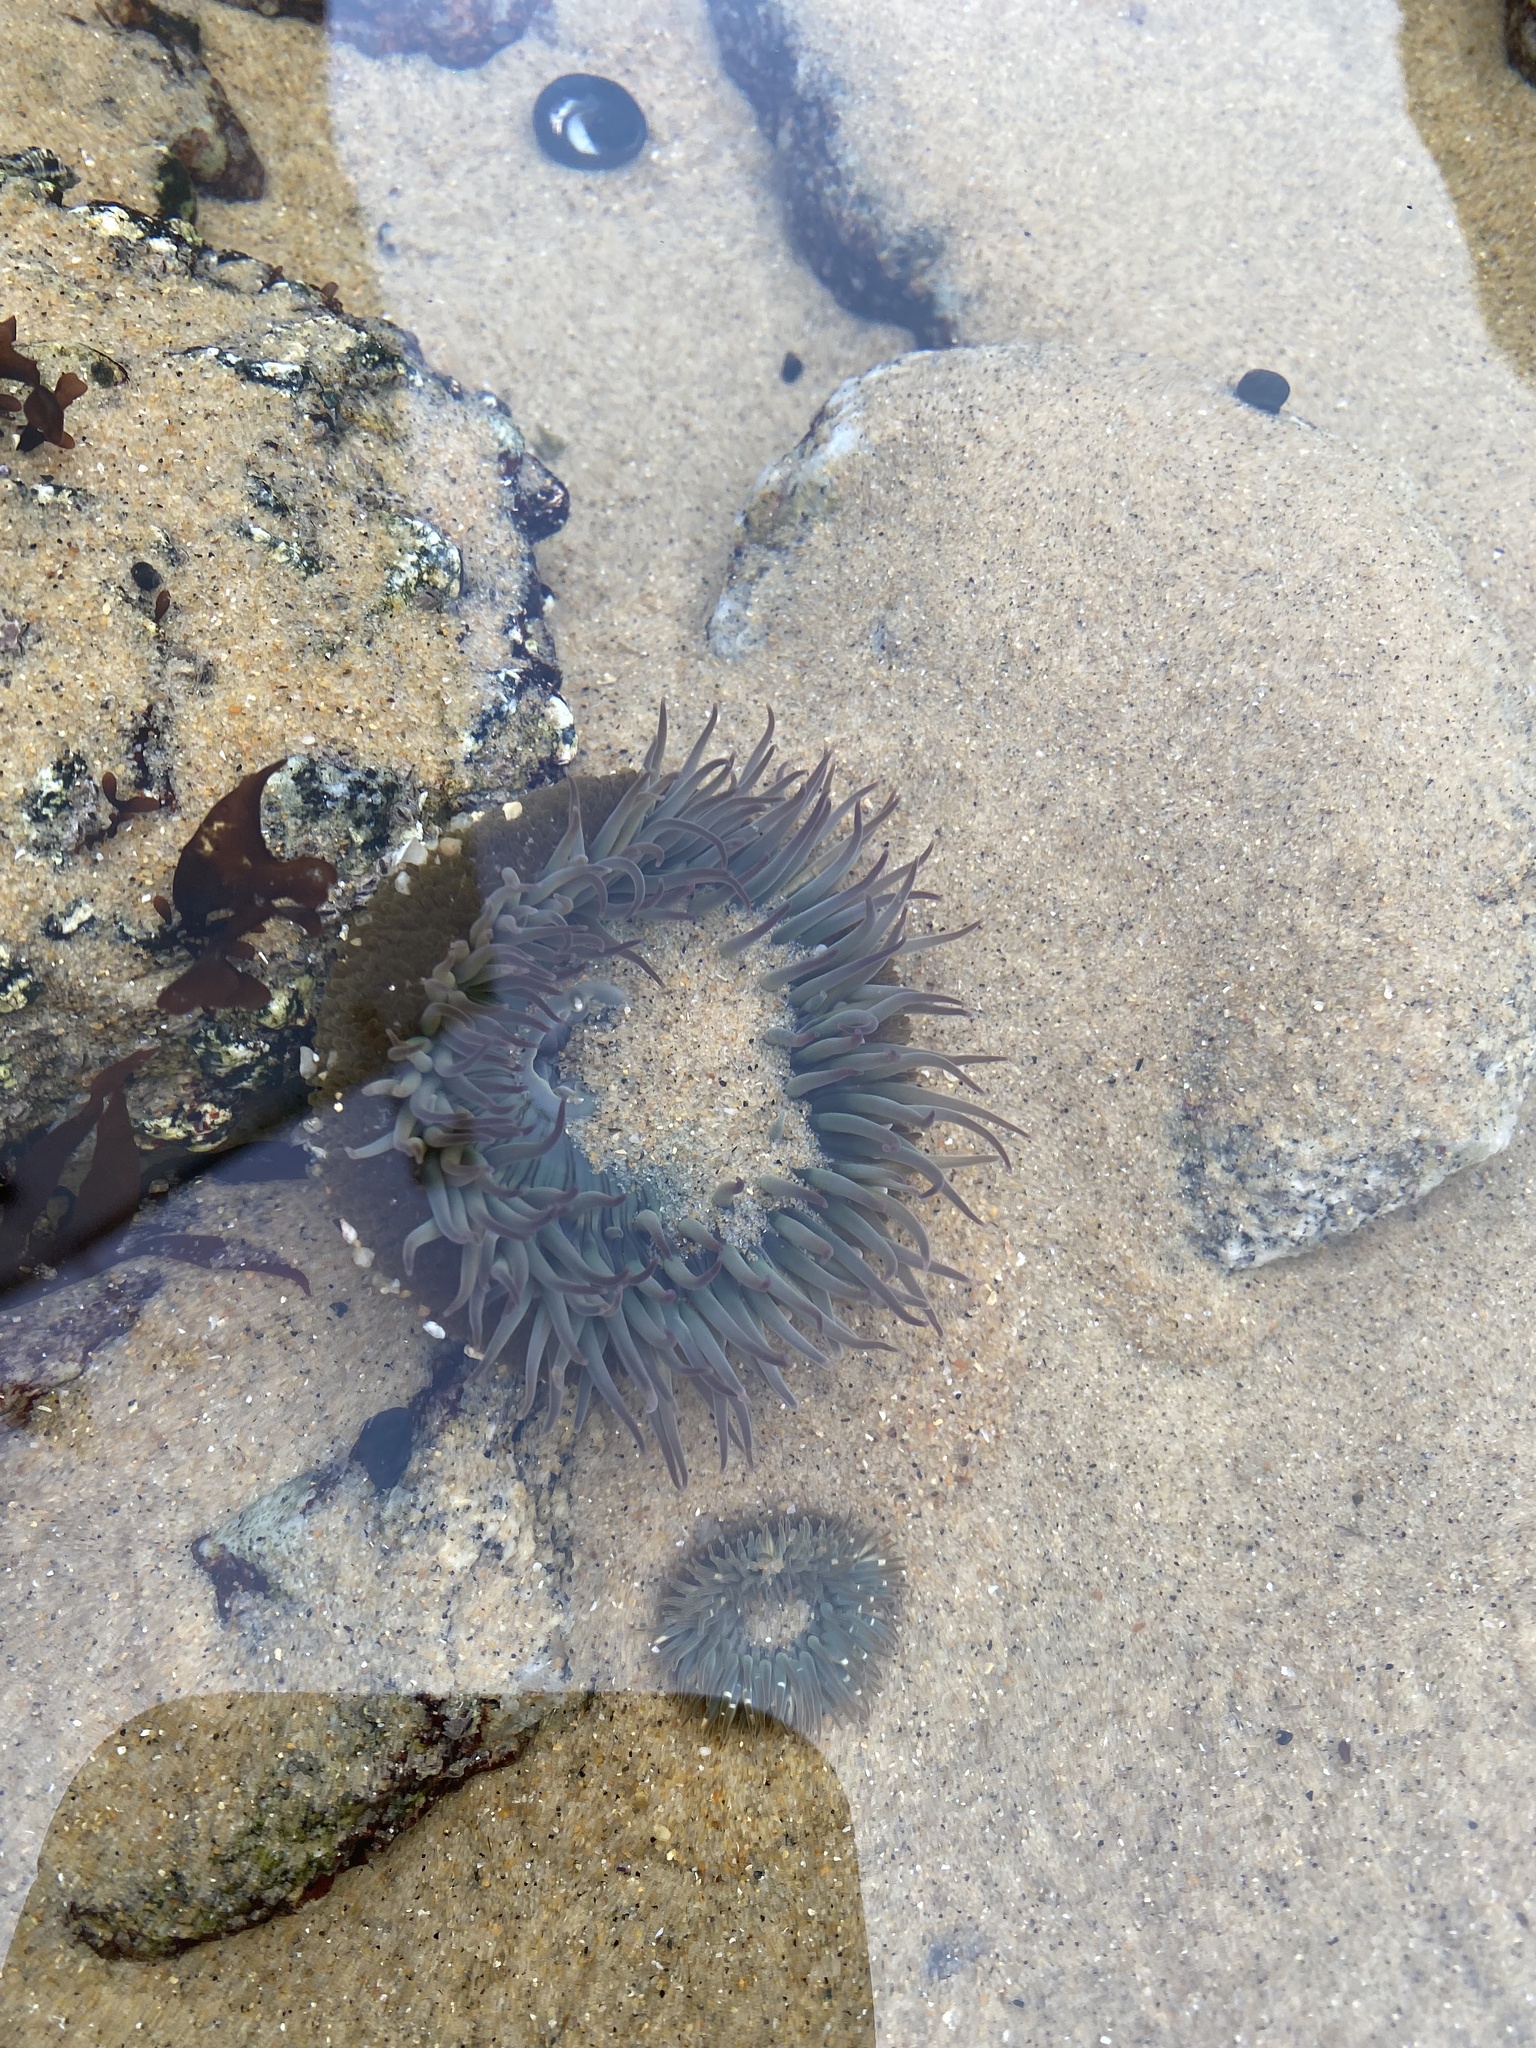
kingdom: Animalia
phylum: Cnidaria
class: Anthozoa
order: Actiniaria
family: Actiniidae
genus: Anthopleura
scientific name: Anthopleura sola
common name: Sun anemone
